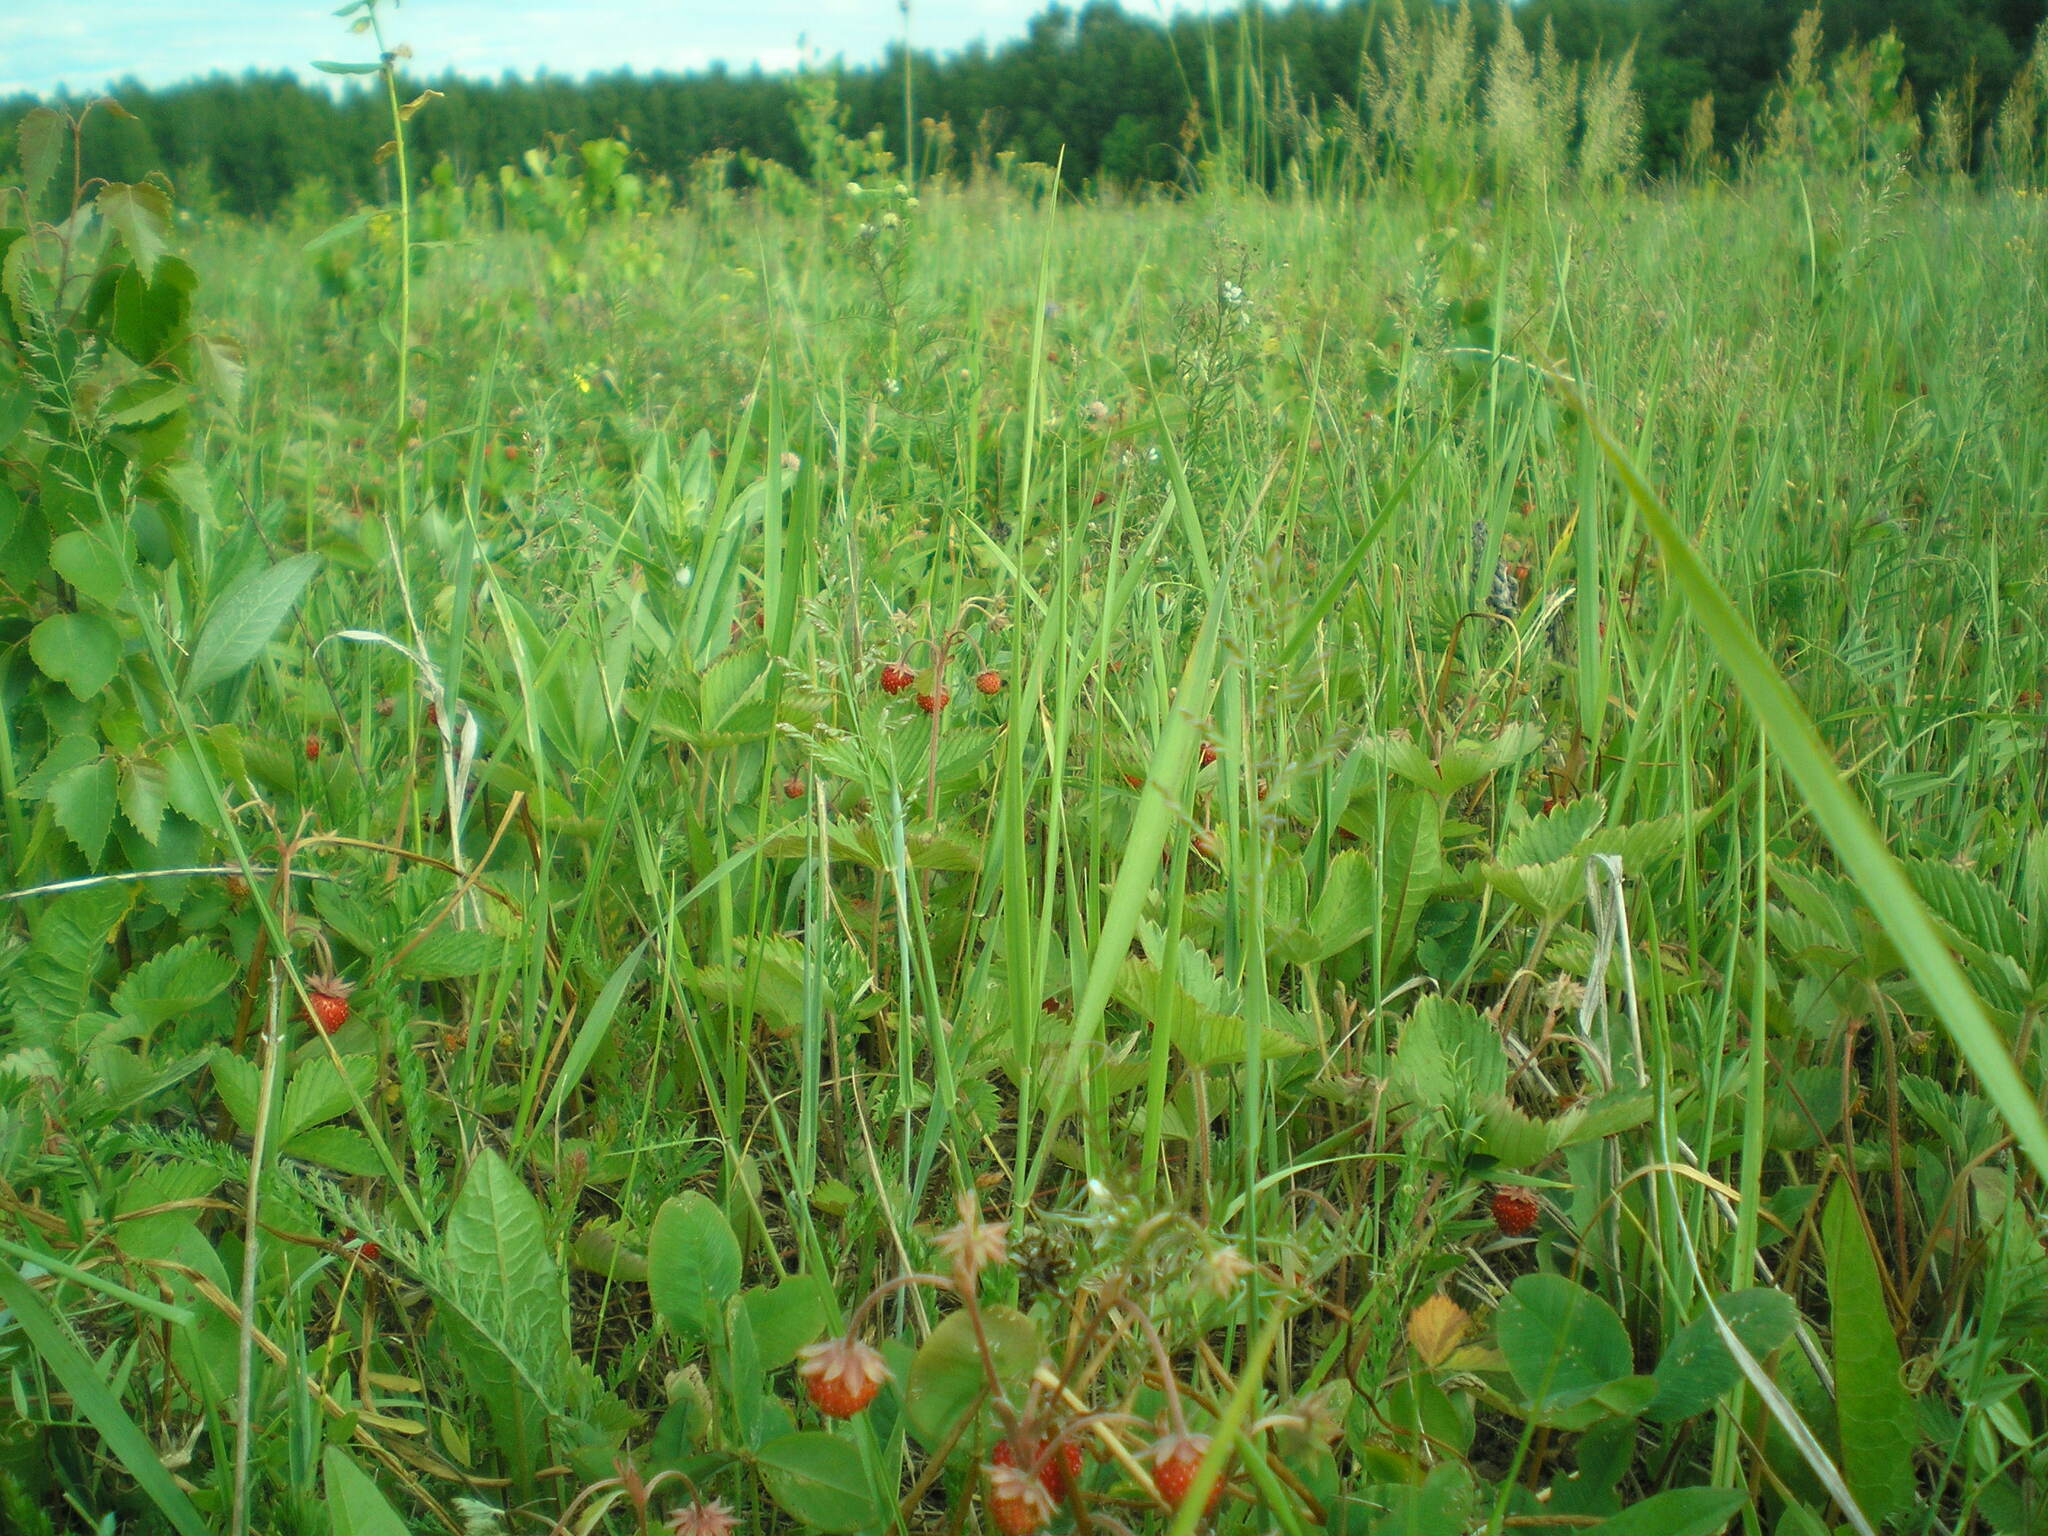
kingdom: Plantae
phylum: Tracheophyta
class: Magnoliopsida
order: Rosales
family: Rosaceae
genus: Fragaria
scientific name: Fragaria vesca
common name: Wild strawberry
